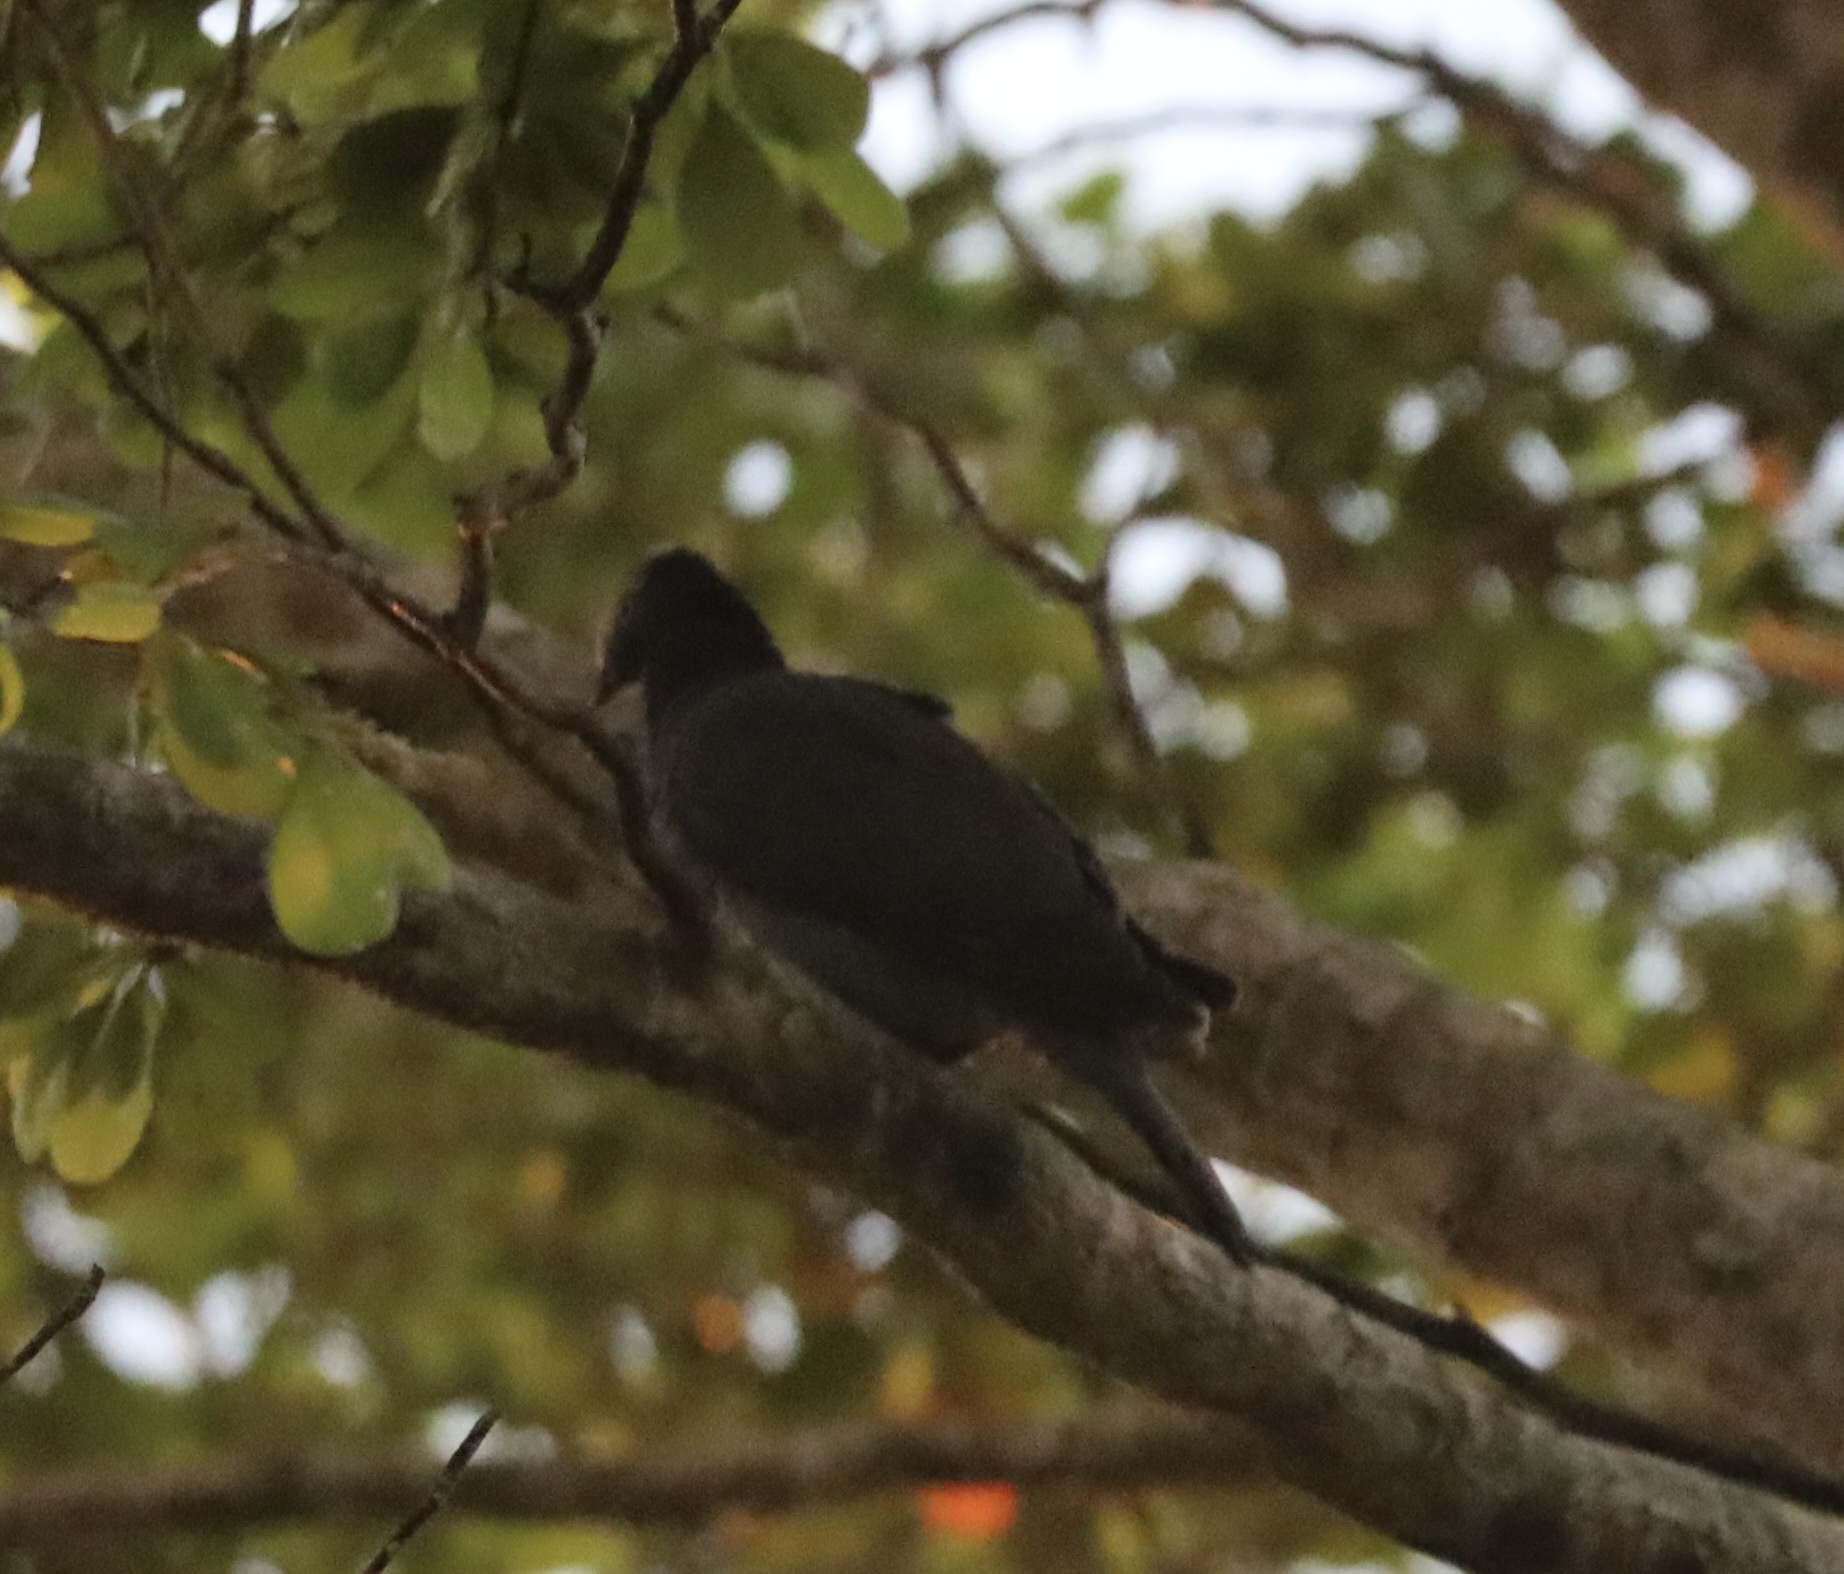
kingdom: Animalia
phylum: Chordata
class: Aves
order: Columbiformes
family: Columbidae
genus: Patagioenas
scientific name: Patagioenas leucocephala
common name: White-crowned pigeon
